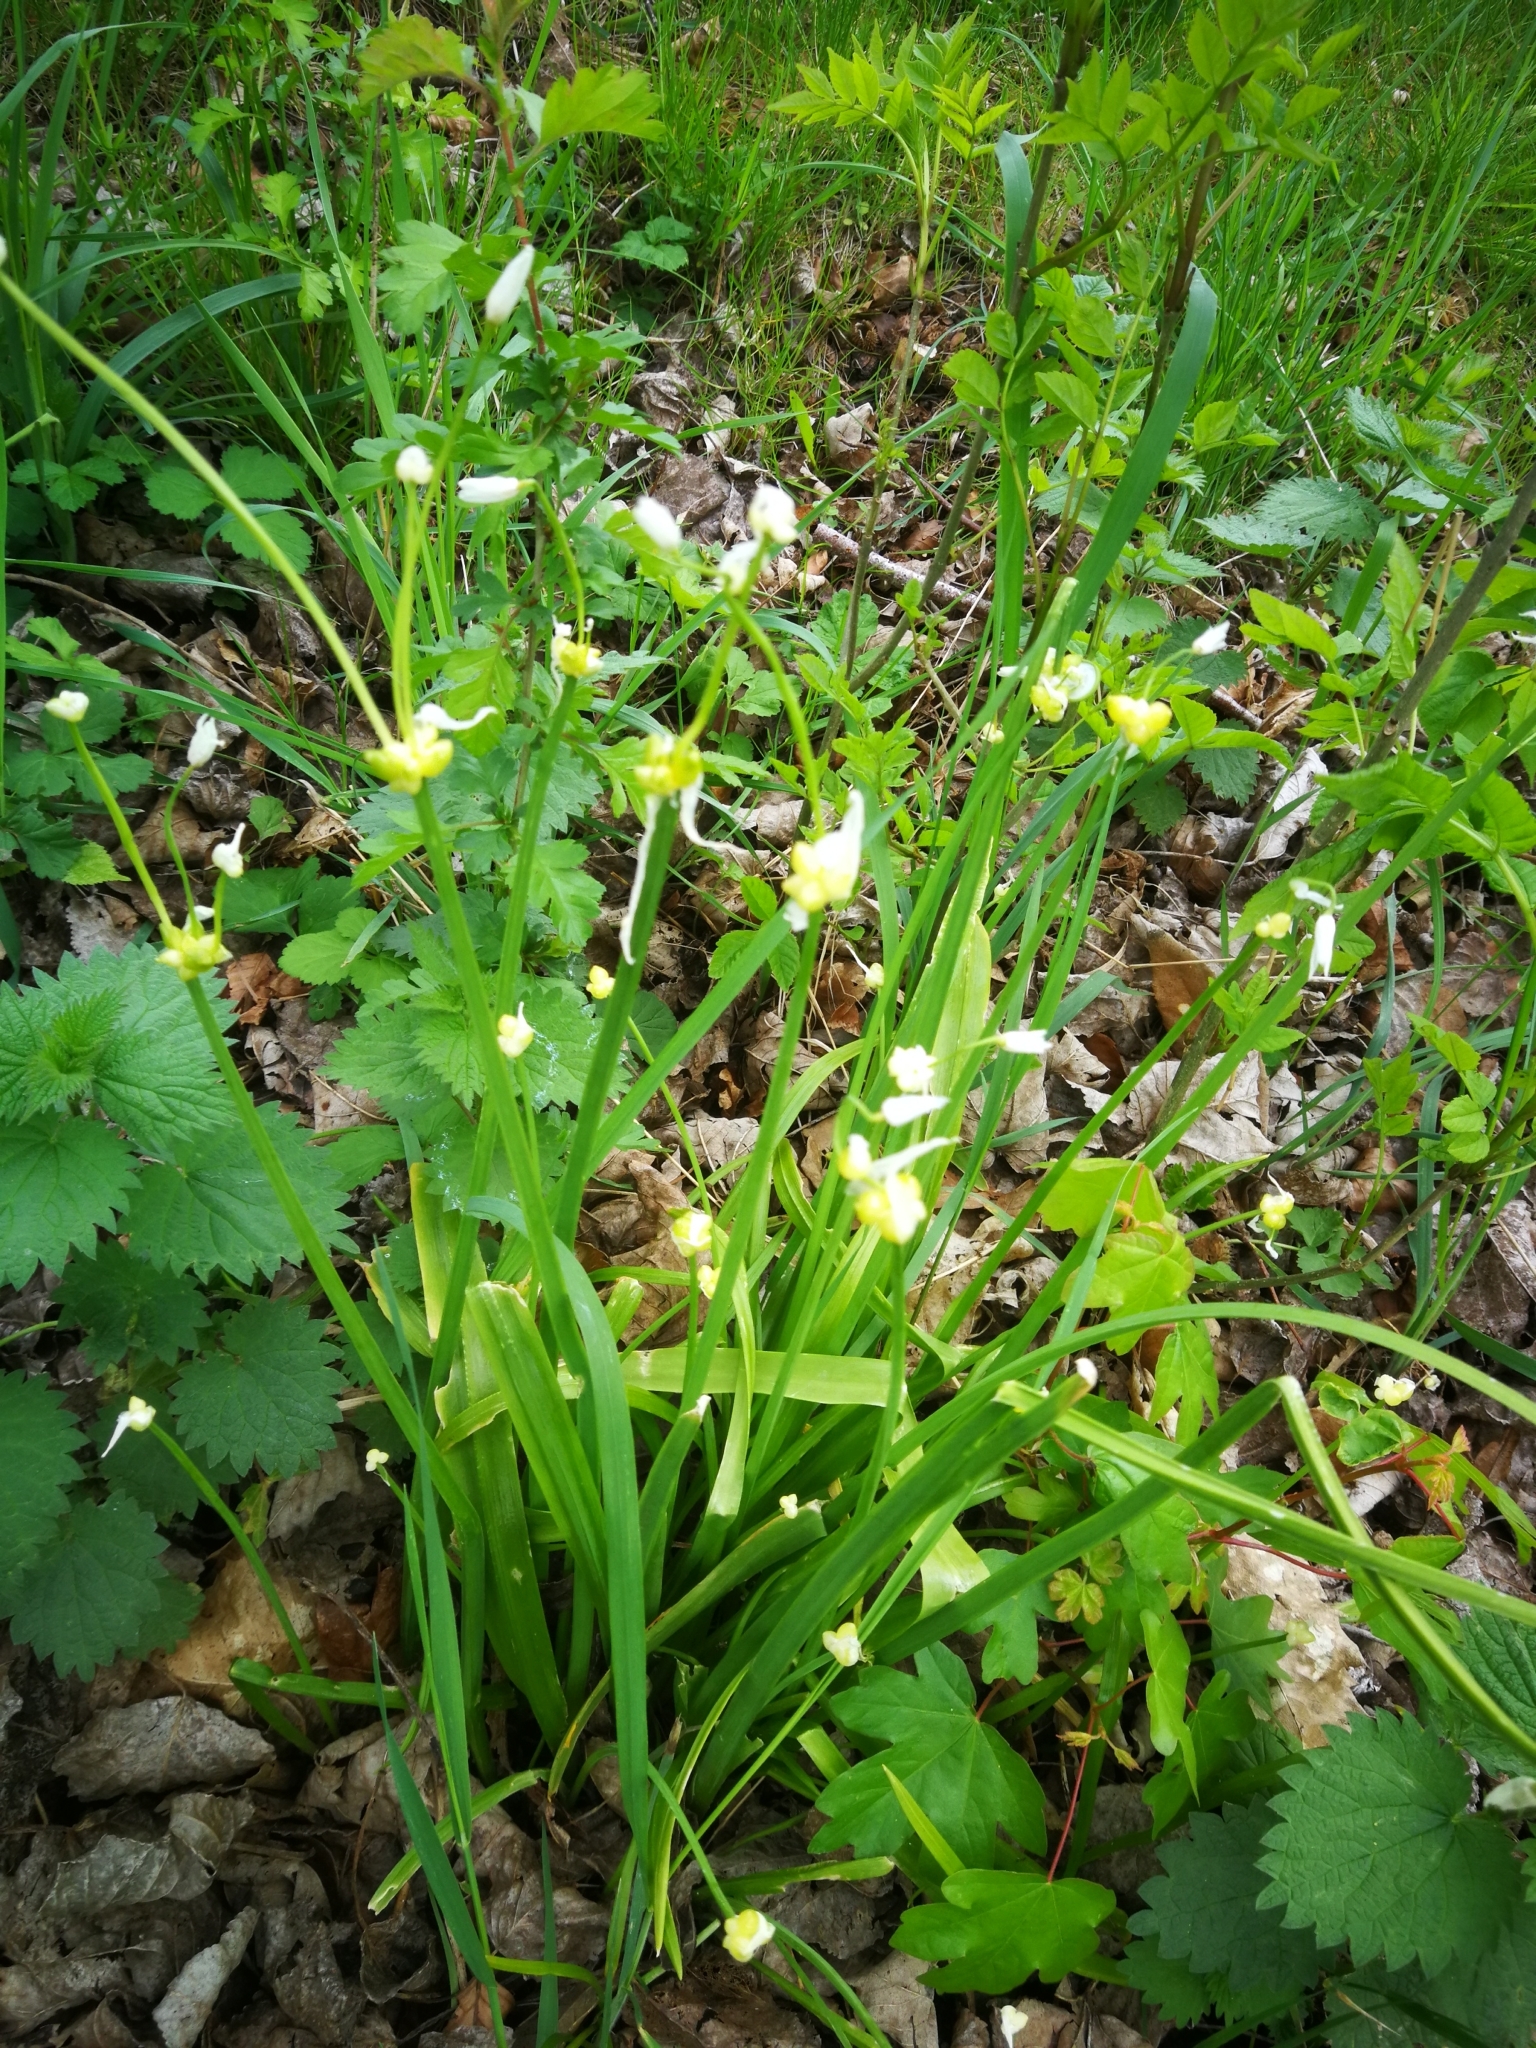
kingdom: Plantae
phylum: Tracheophyta
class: Liliopsida
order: Asparagales
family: Amaryllidaceae
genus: Allium
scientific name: Allium paradoxum
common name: Few-flowered garlic
